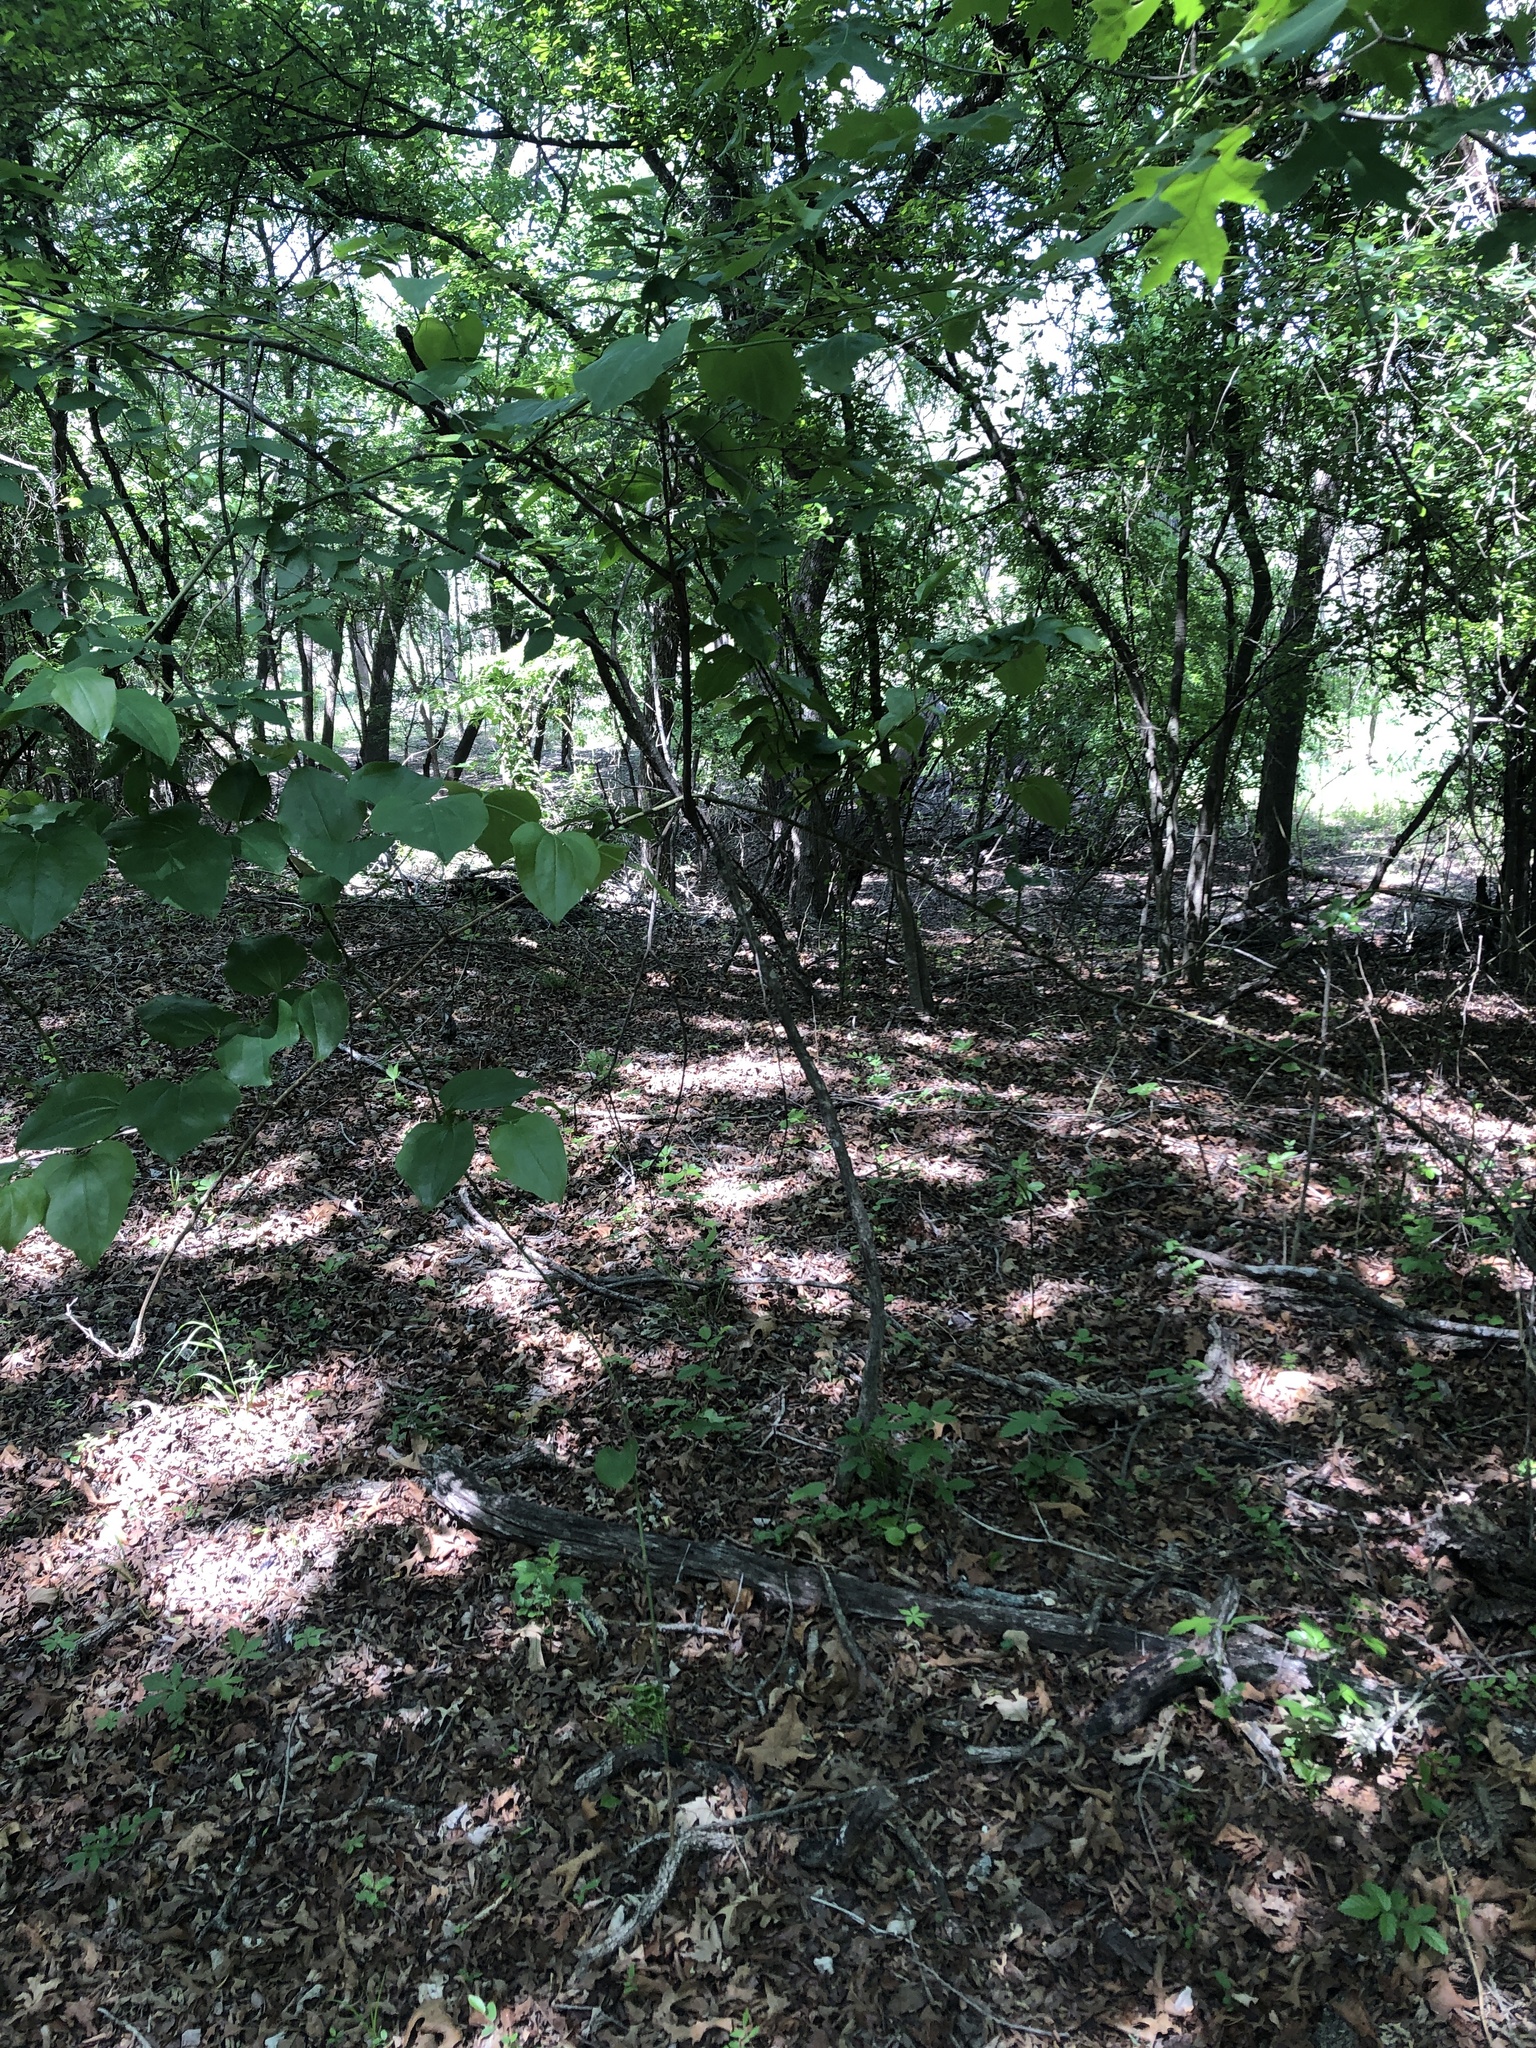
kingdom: Plantae
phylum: Tracheophyta
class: Liliopsida
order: Liliales
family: Smilacaceae
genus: Smilax
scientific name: Smilax tamnoides
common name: Hellfetter
